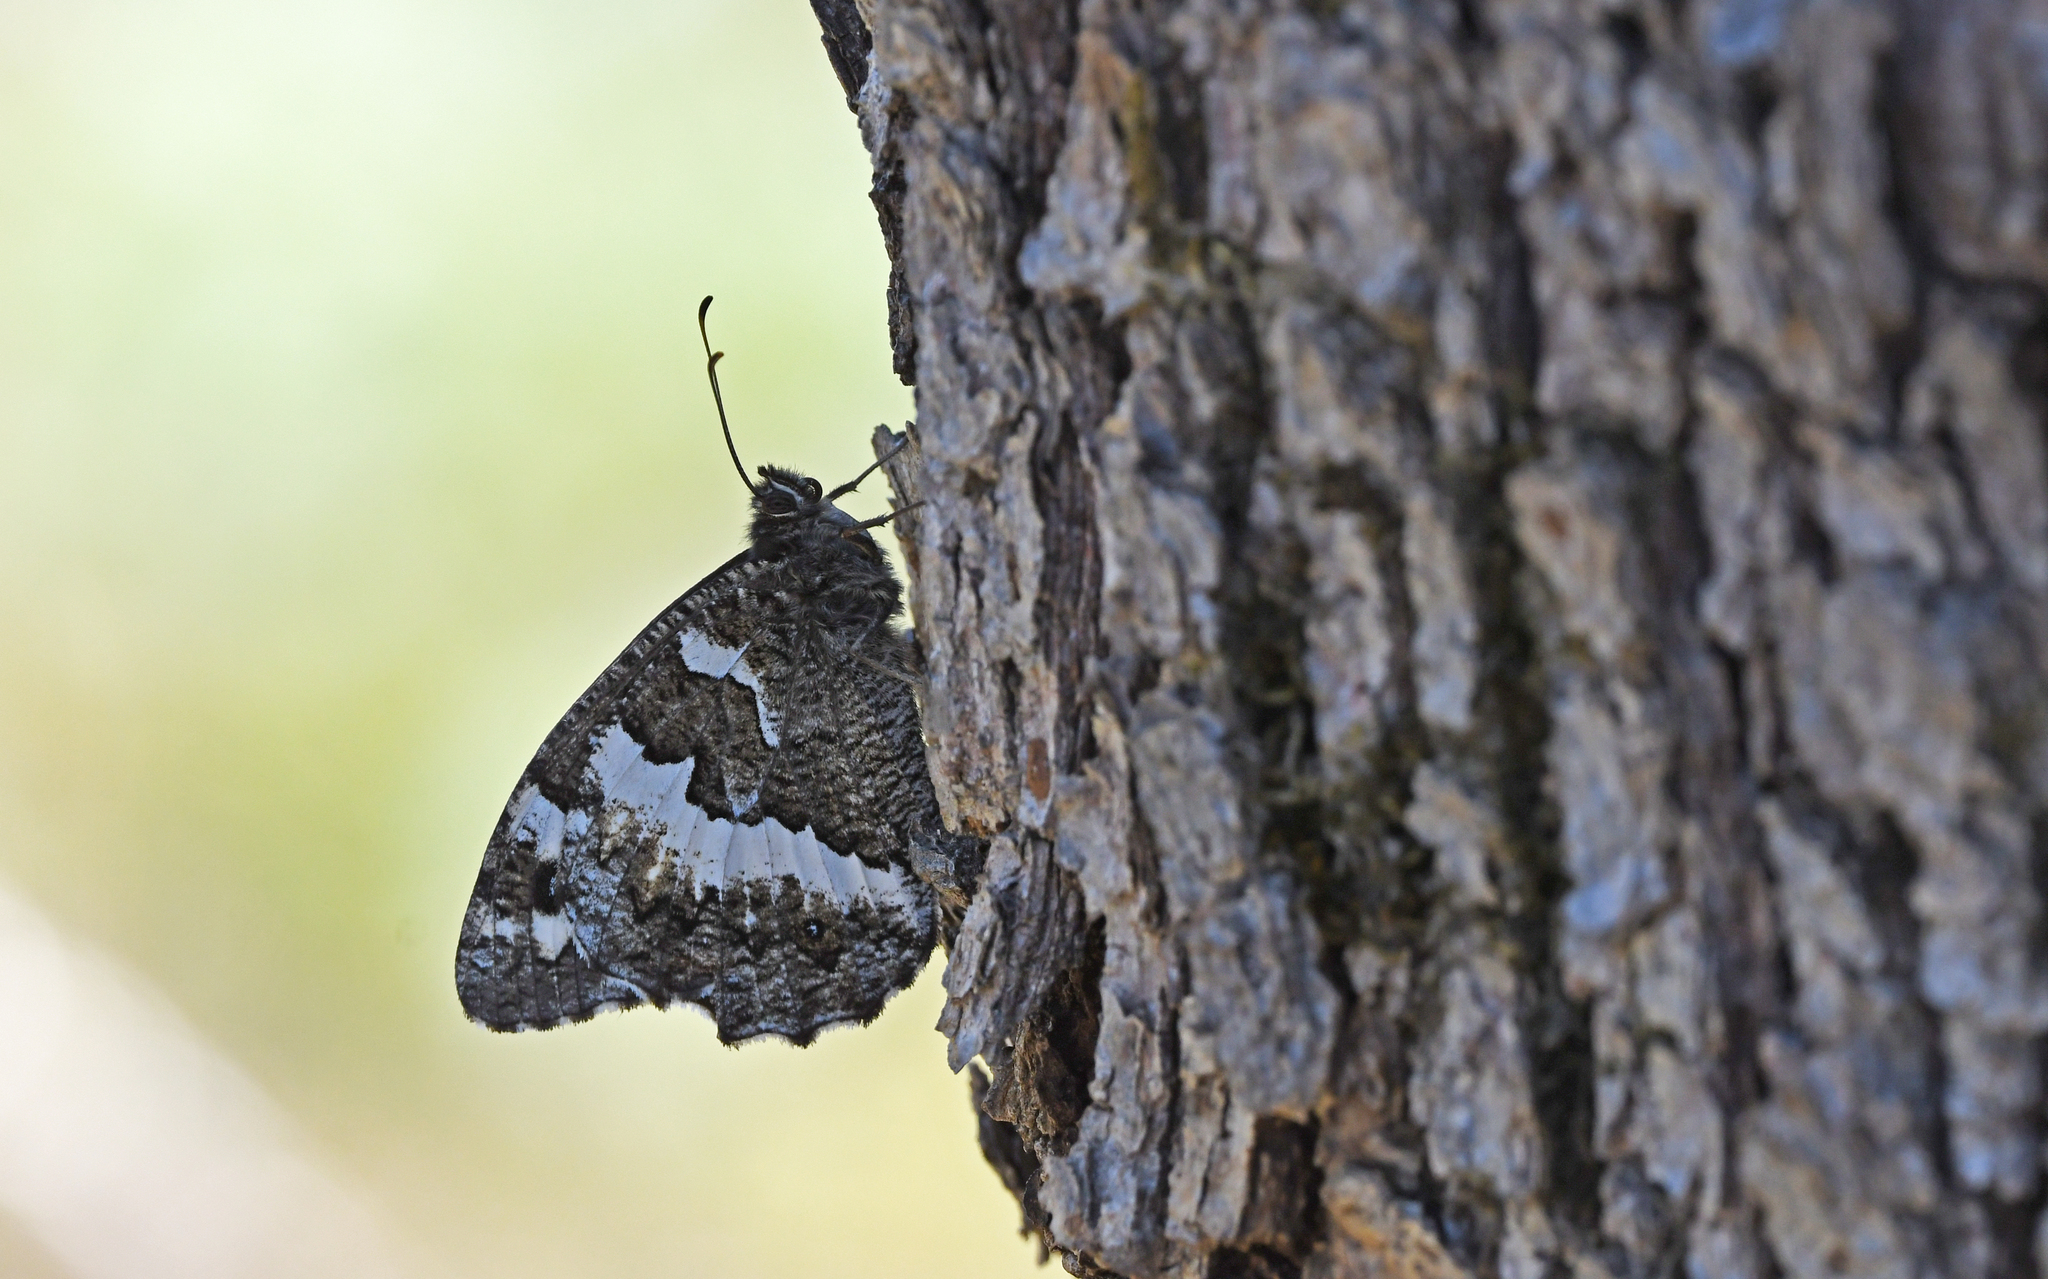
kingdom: Animalia
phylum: Arthropoda
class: Insecta
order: Lepidoptera
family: Lycaenidae
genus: Loweia
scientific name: Loweia tityrus
